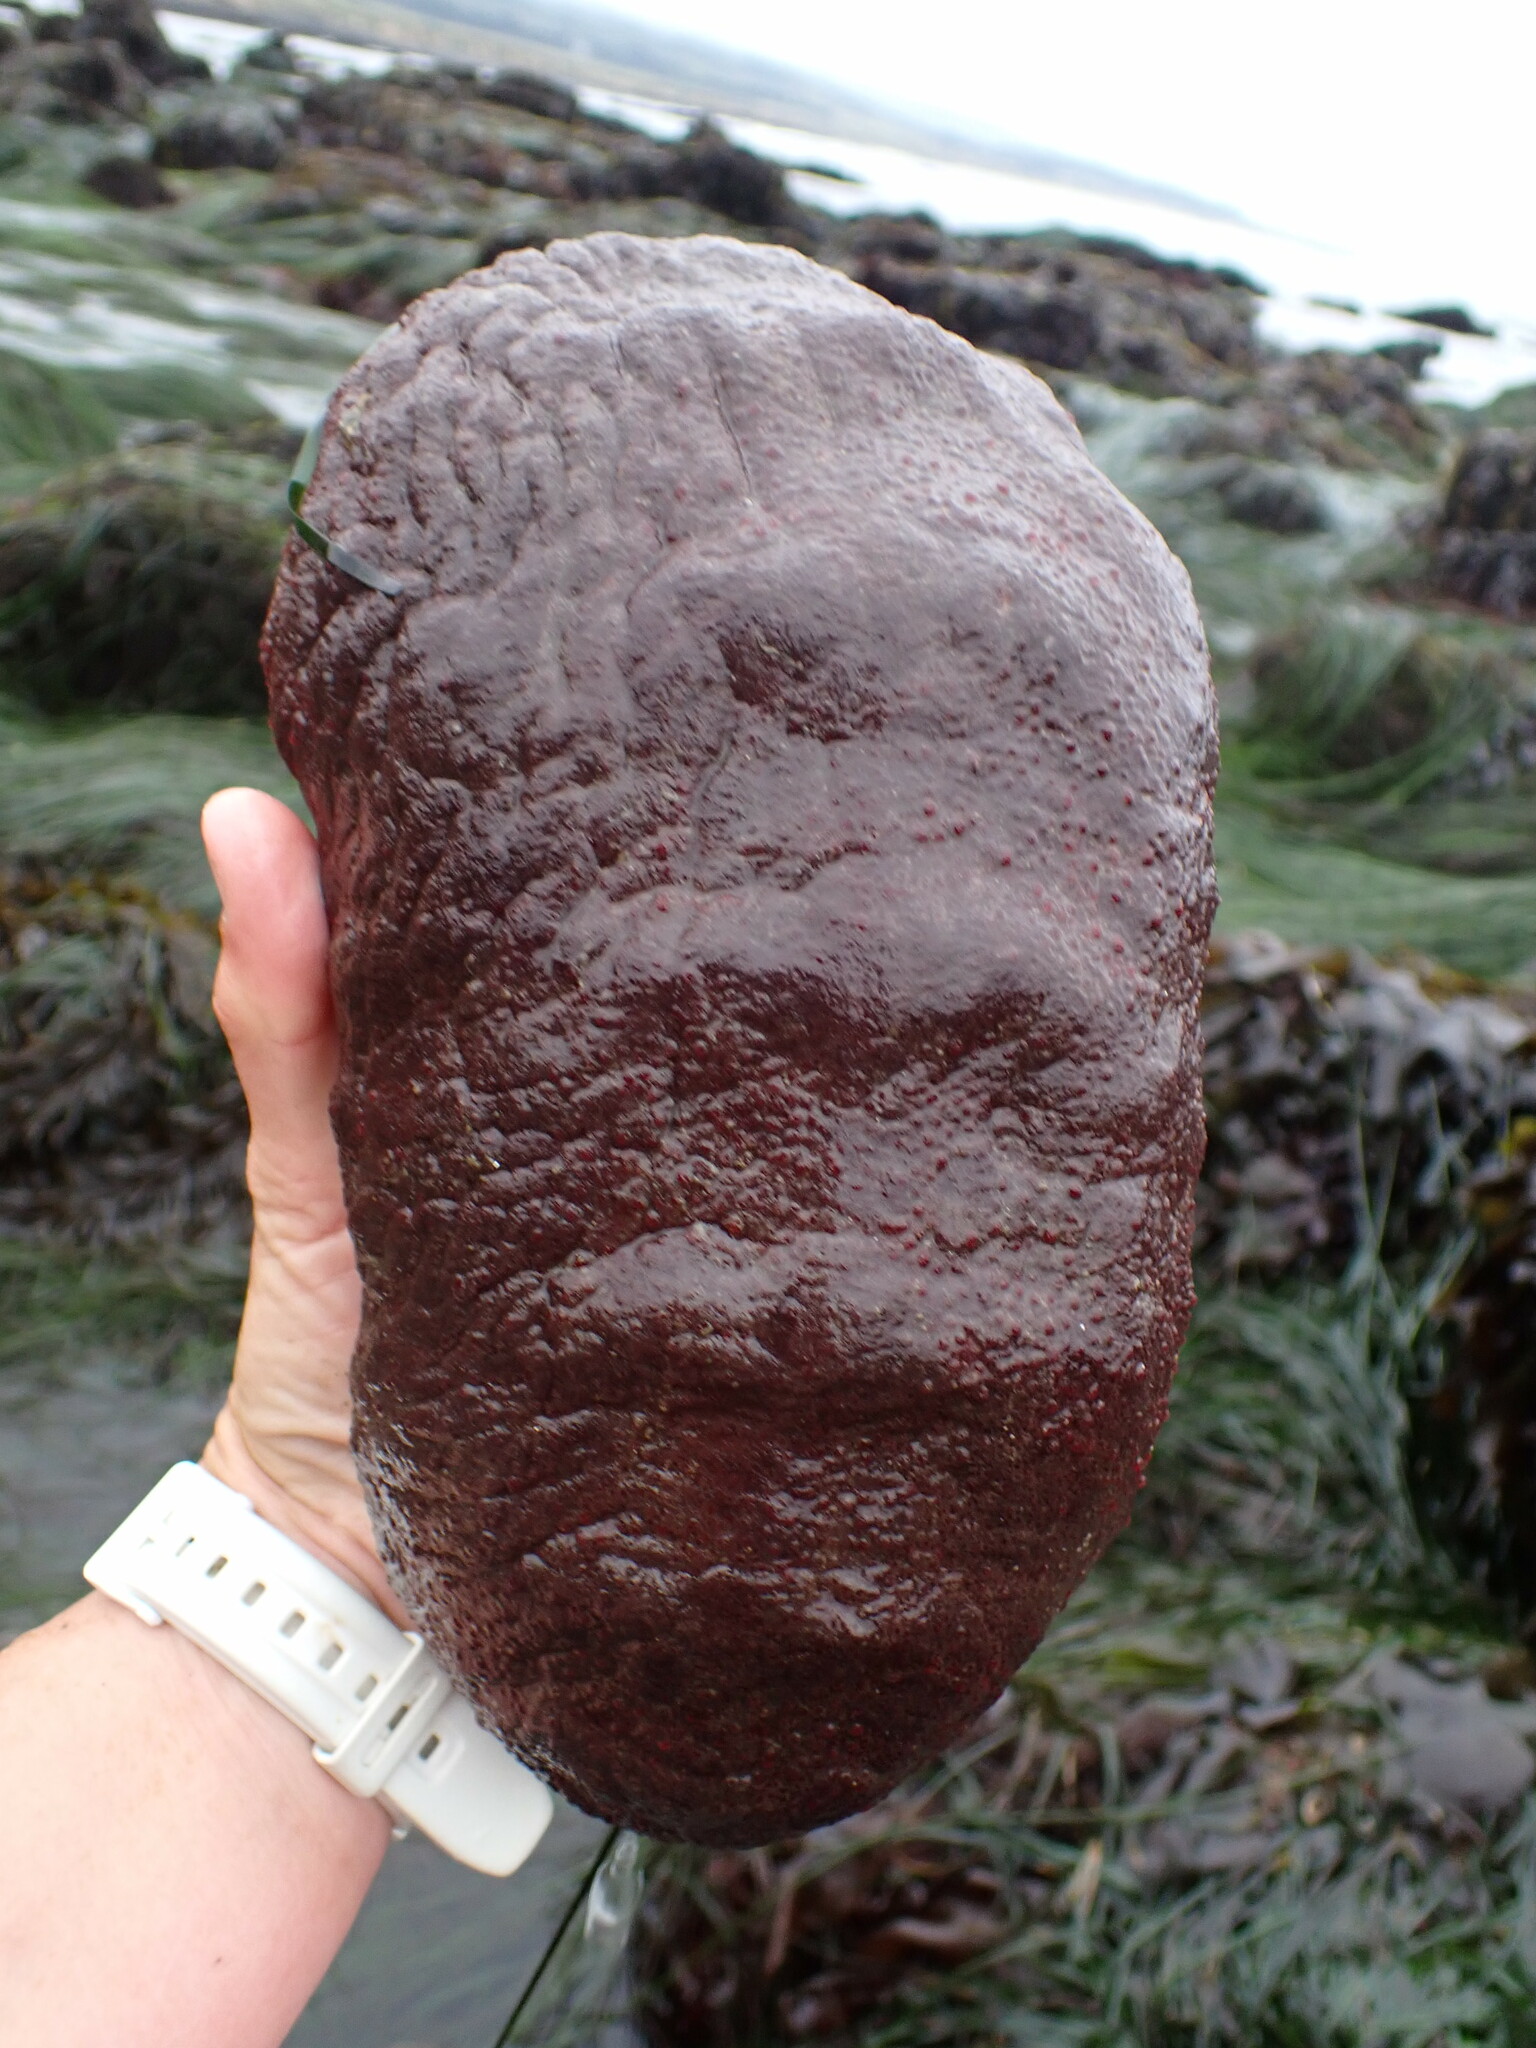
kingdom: Animalia
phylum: Mollusca
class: Polyplacophora
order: Chitonida
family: Acanthochitonidae
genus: Cryptochiton
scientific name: Cryptochiton stelleri
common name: Giant pacific chiton
